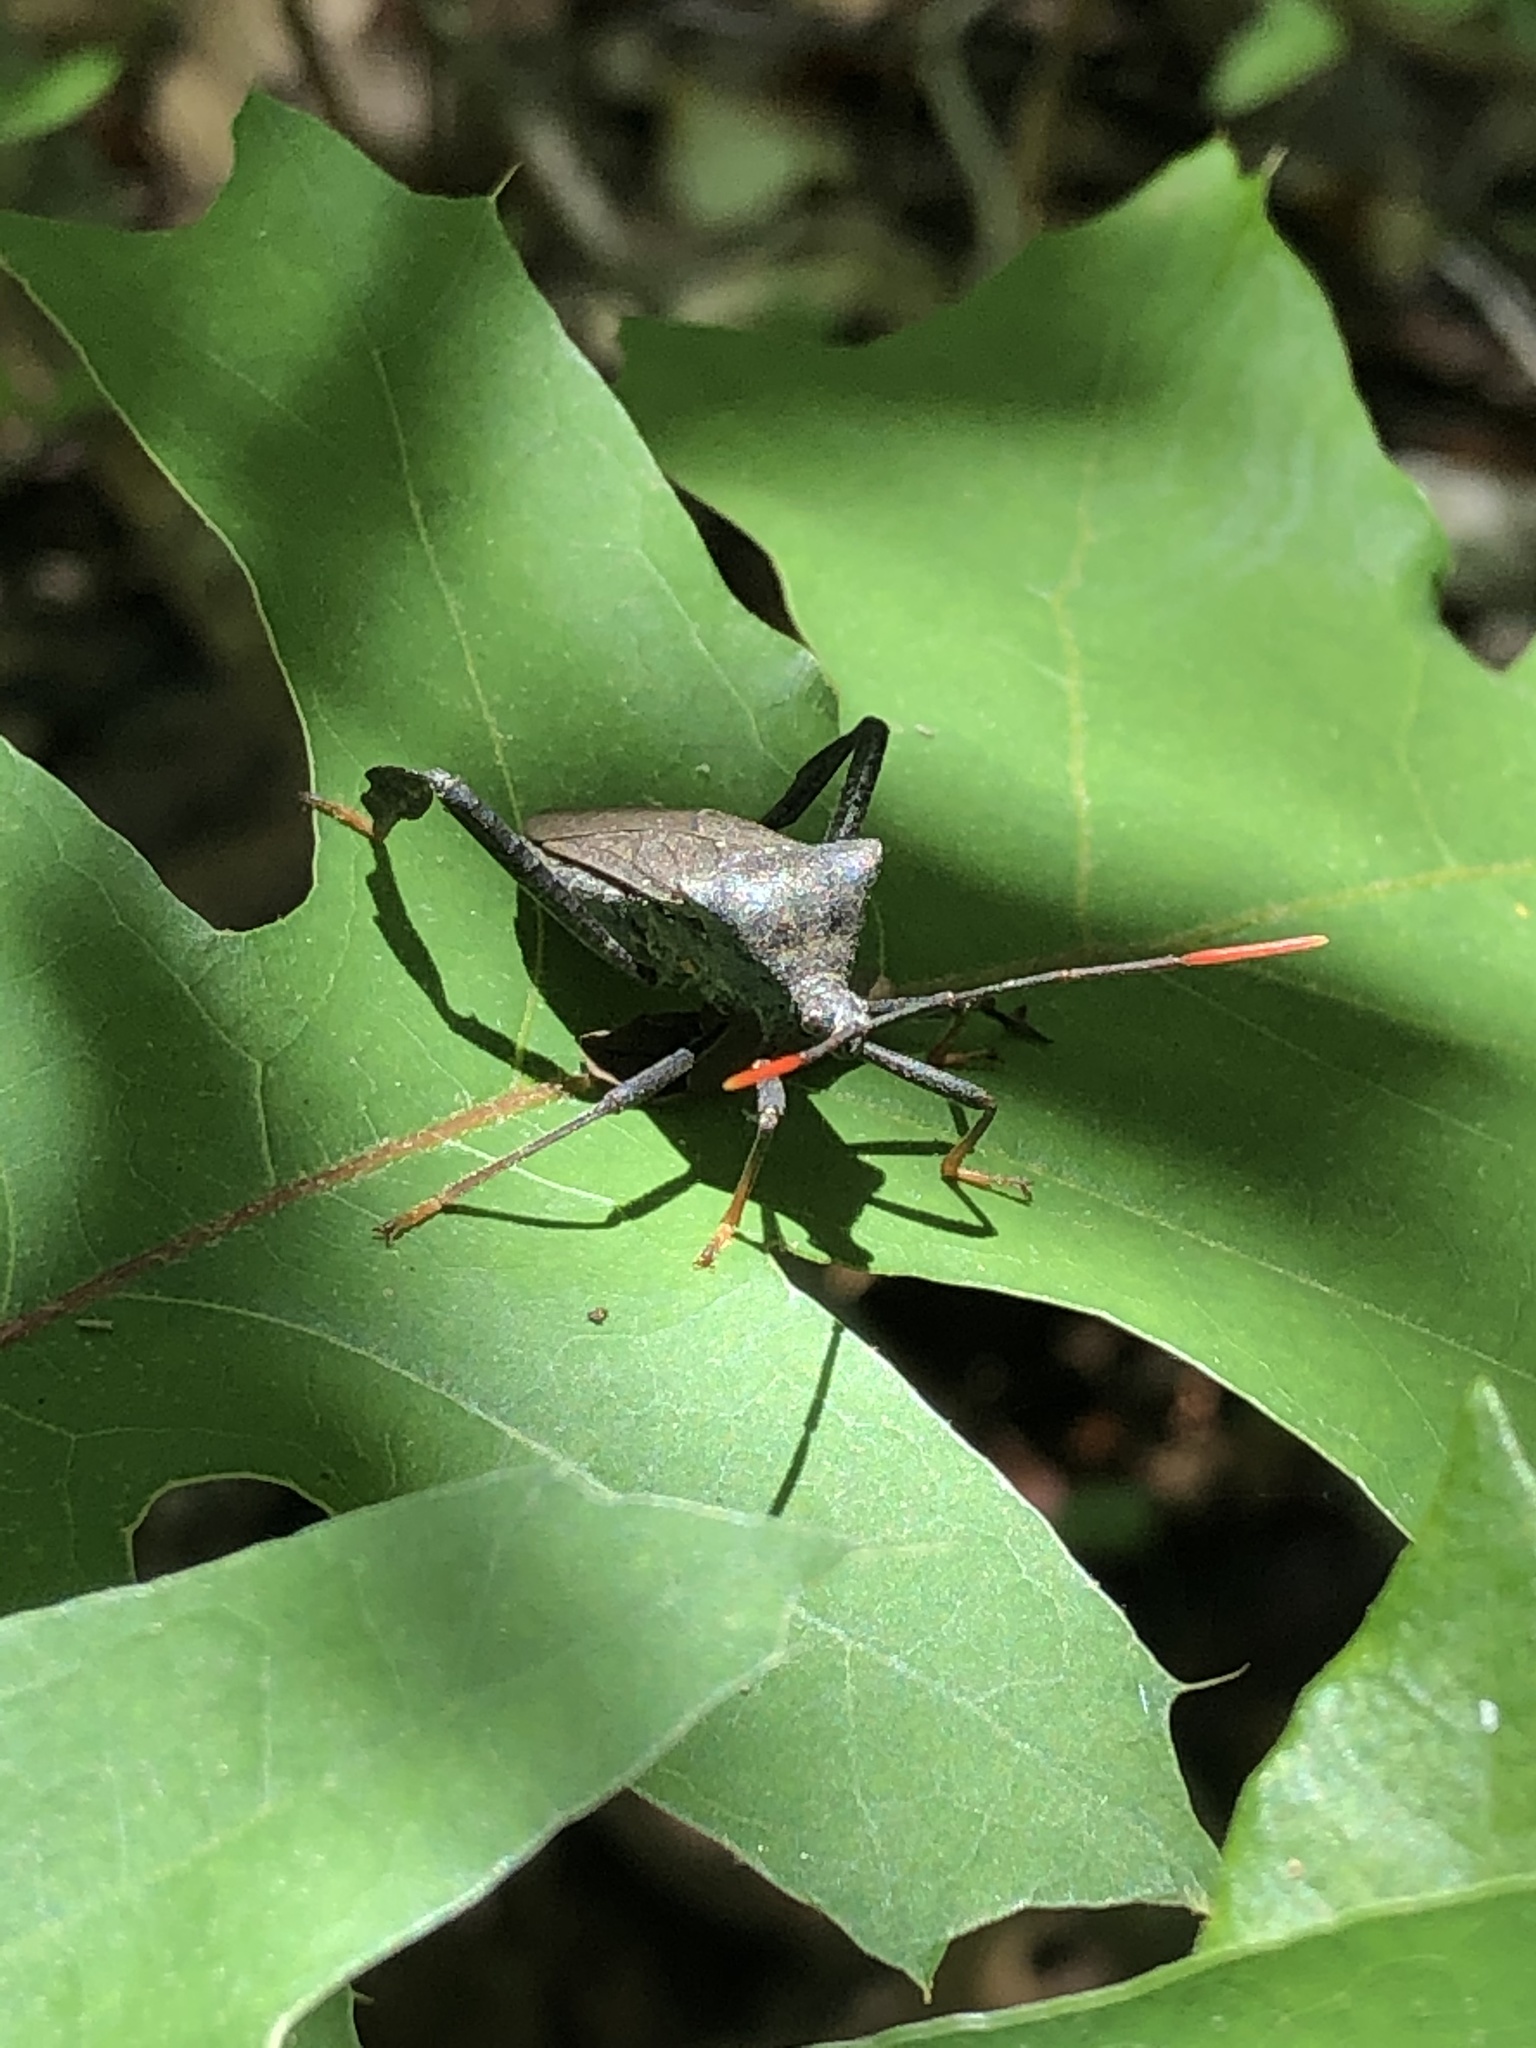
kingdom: Animalia
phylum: Arthropoda
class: Insecta
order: Hemiptera
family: Coreidae
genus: Acanthocephala
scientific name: Acanthocephala terminalis
